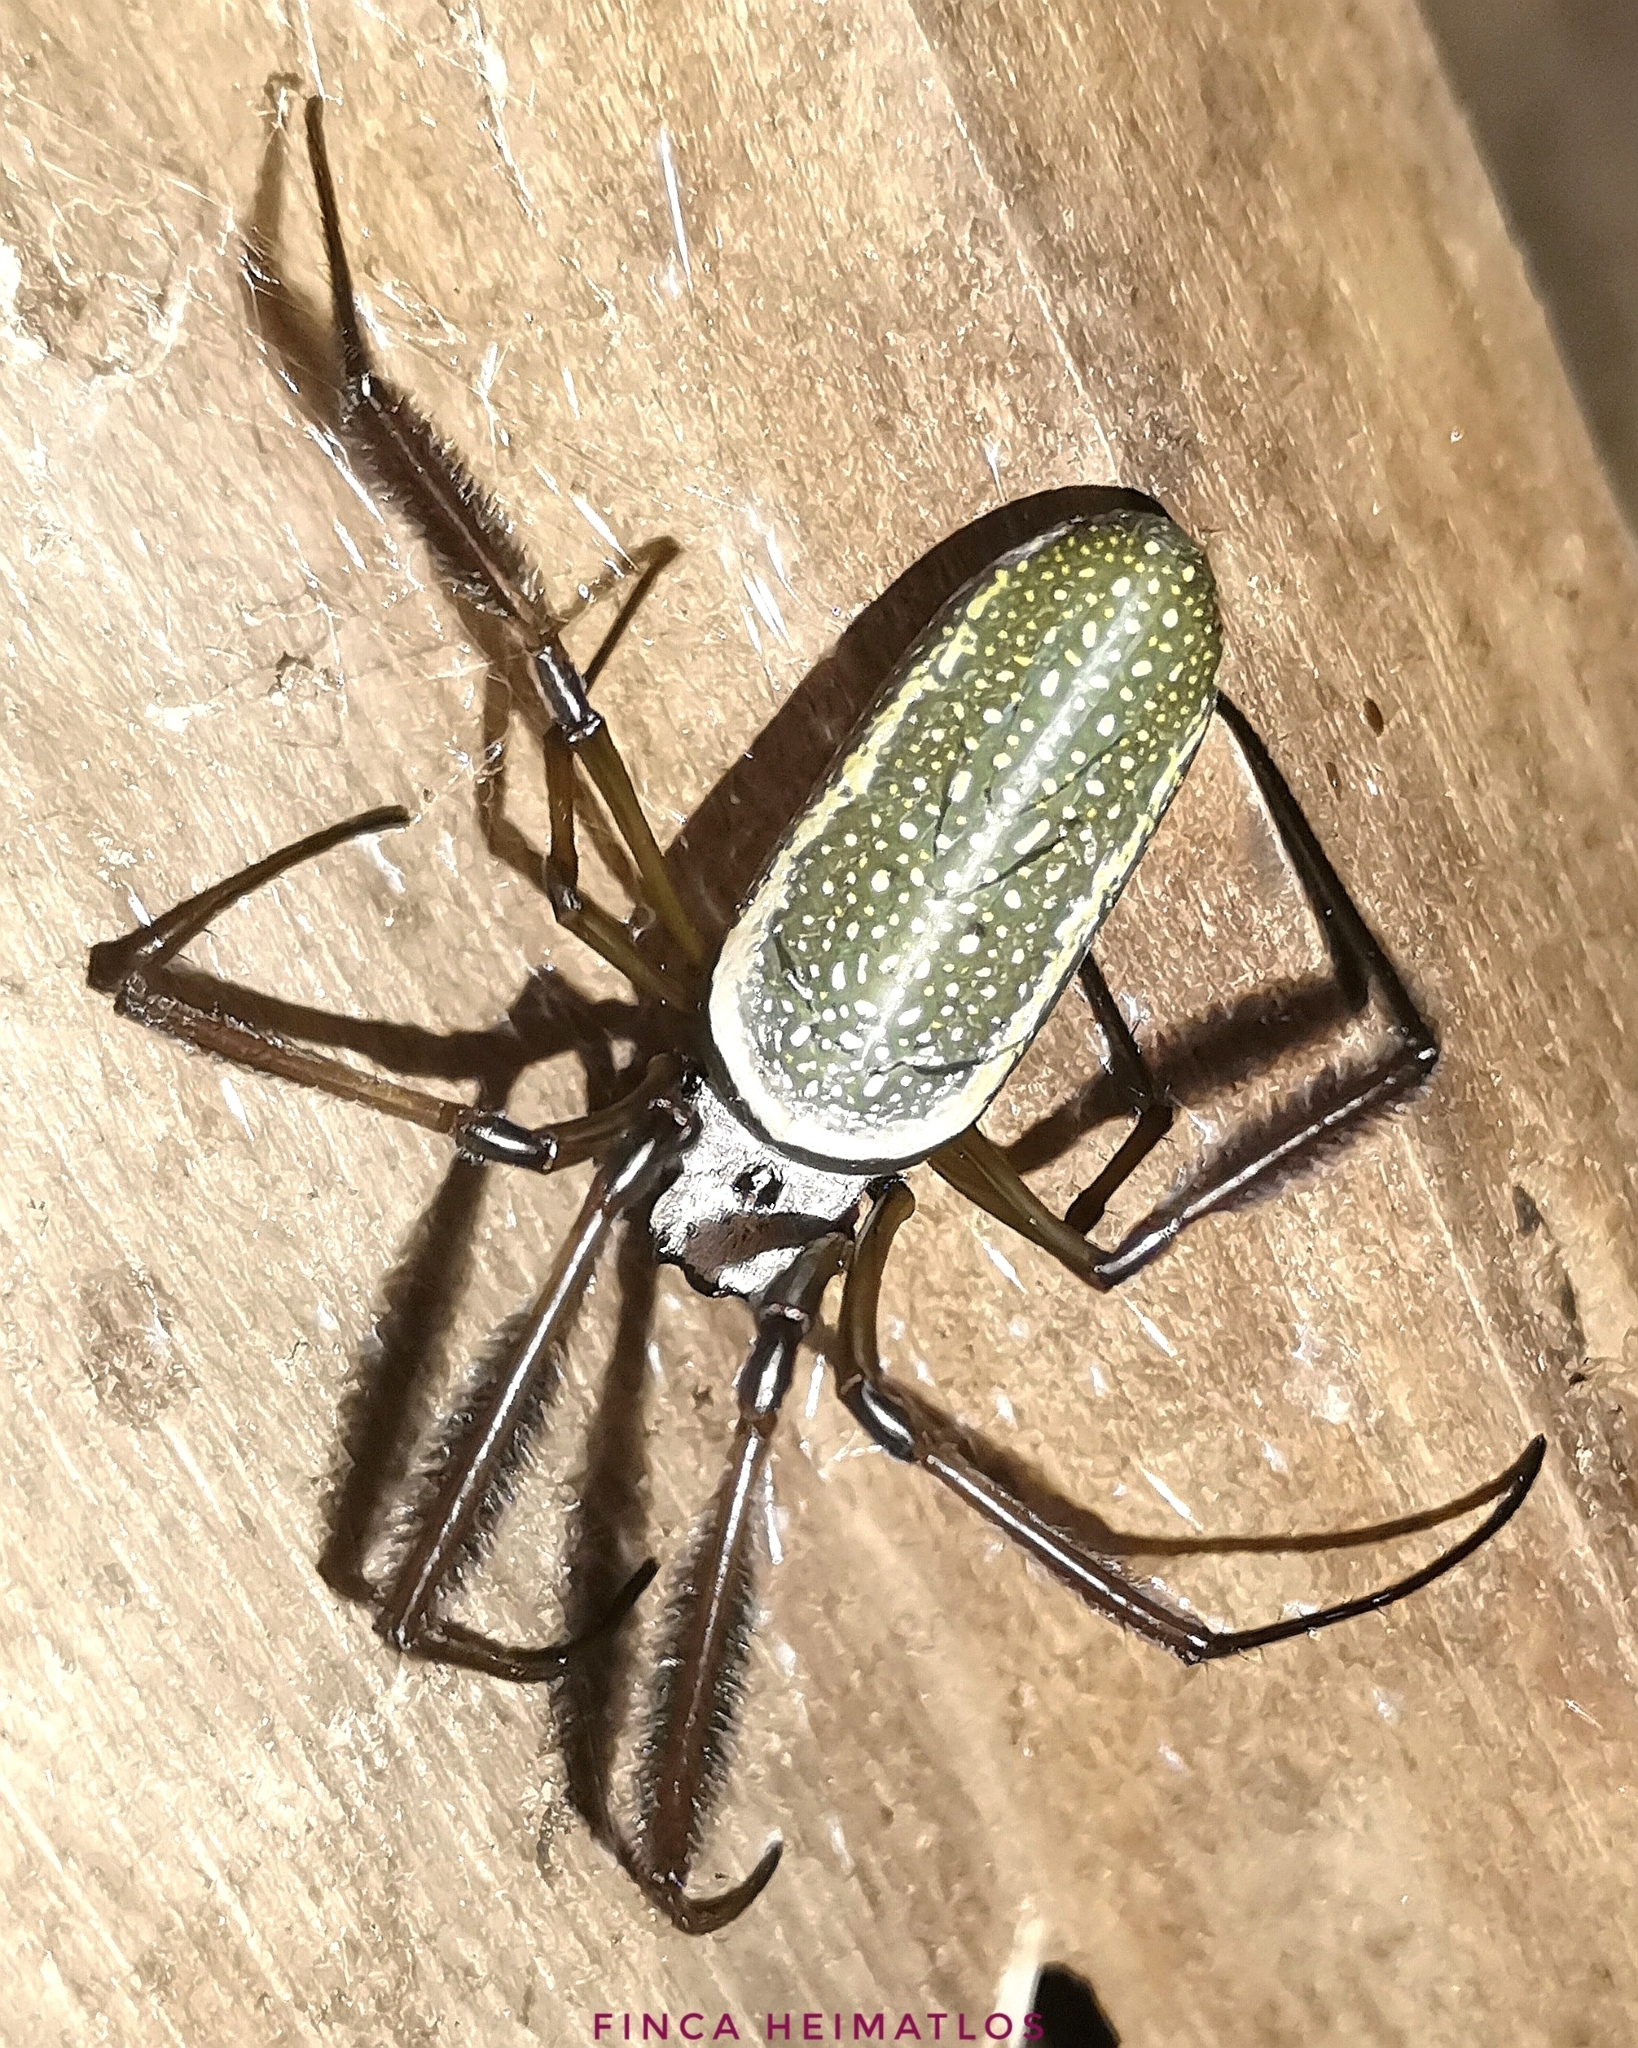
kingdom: Animalia
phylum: Arthropoda
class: Arachnida
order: Araneae
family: Araneidae
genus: Trichonephila
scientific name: Trichonephila clavipes
